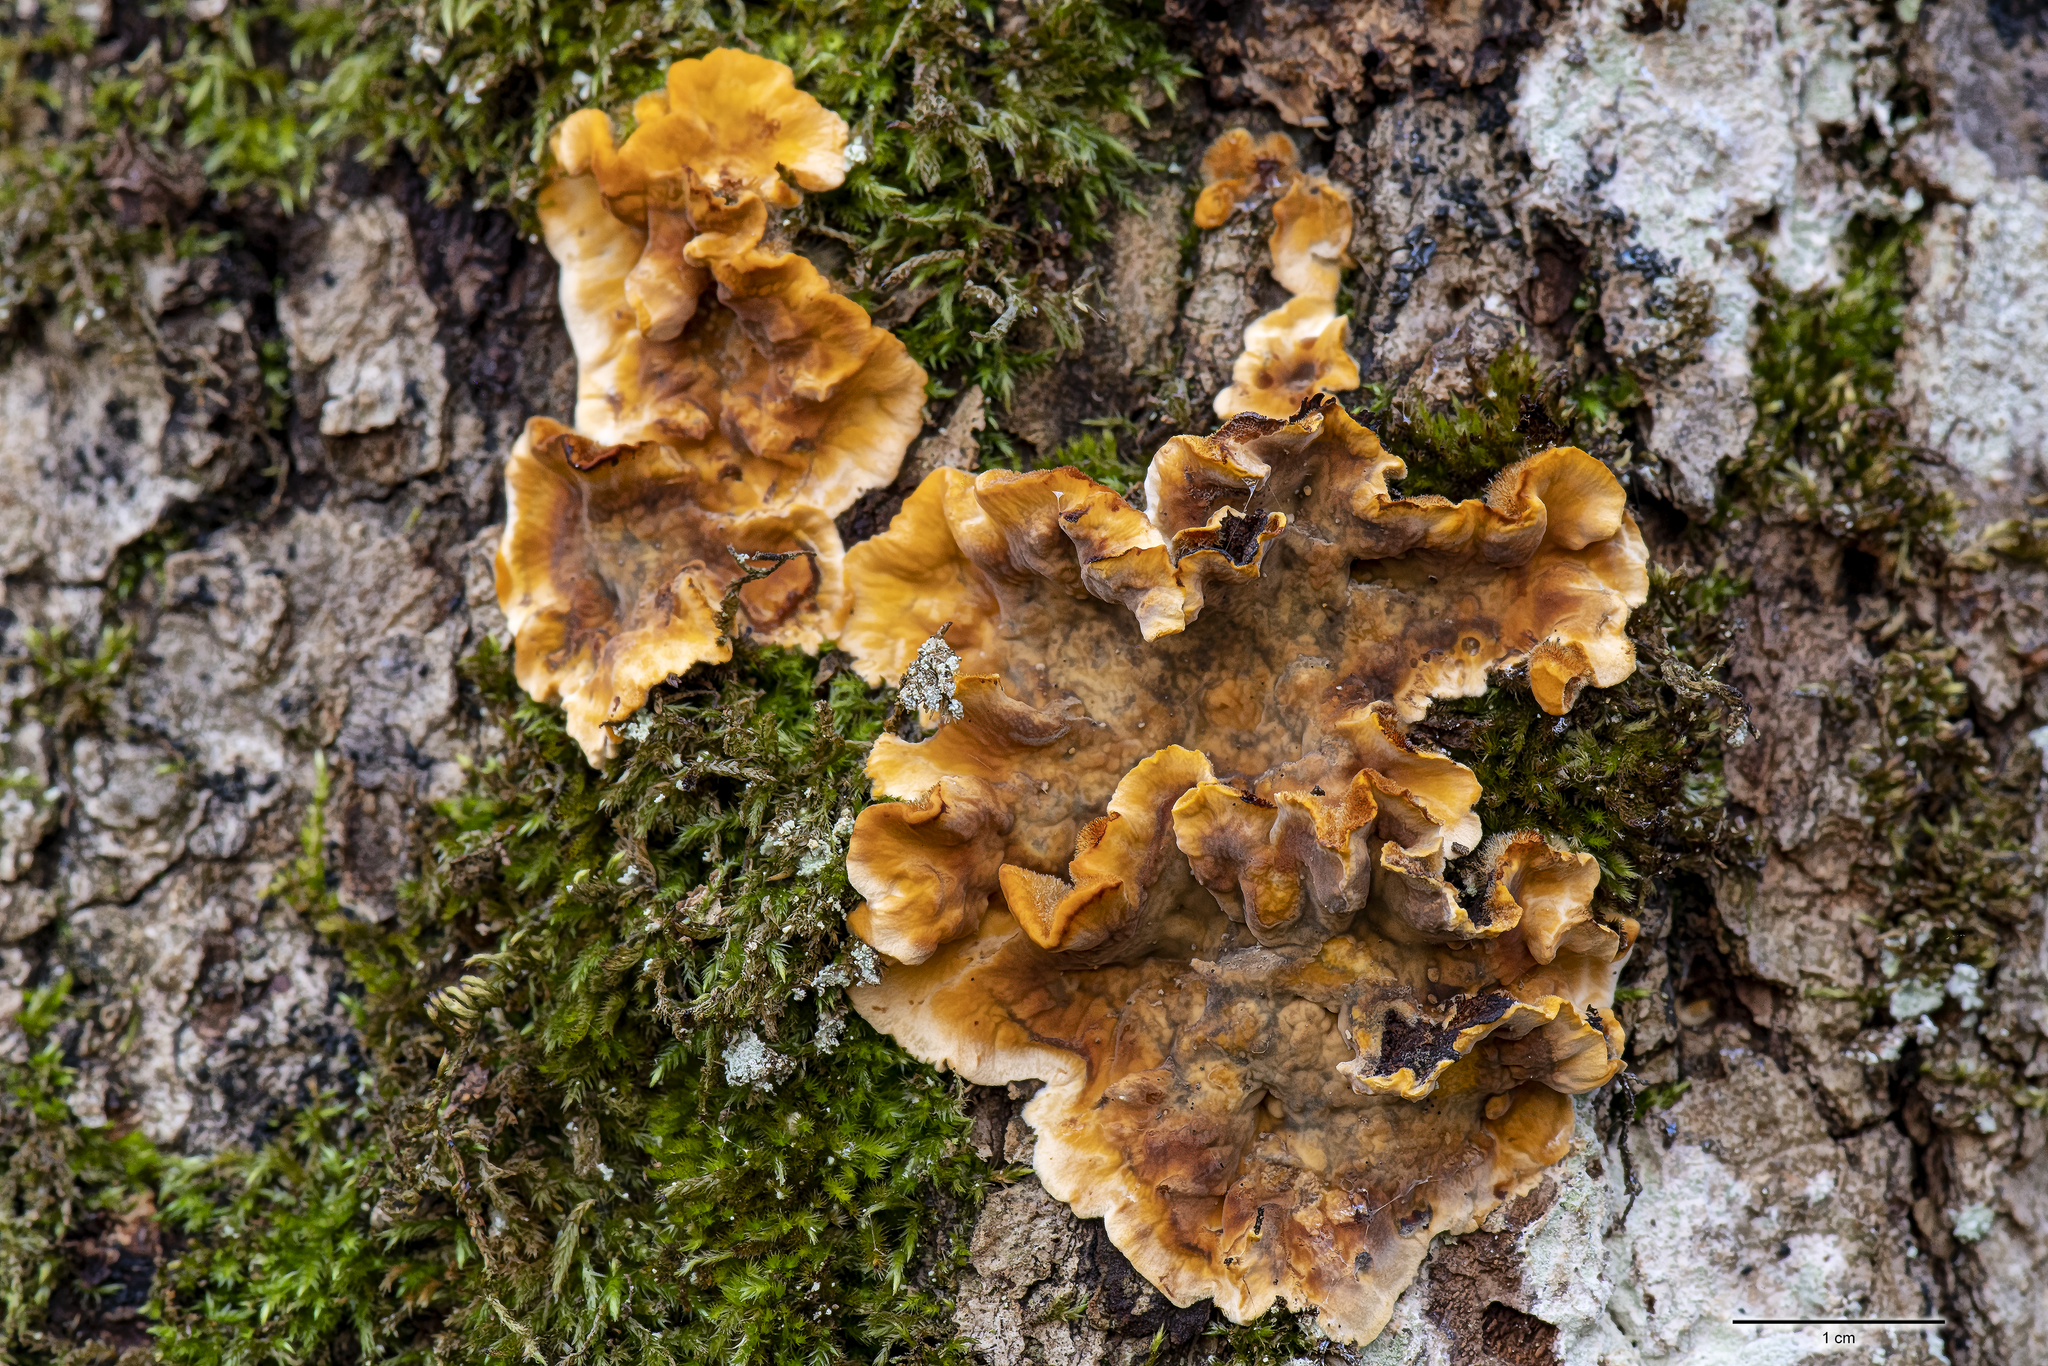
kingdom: Fungi
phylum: Basidiomycota
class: Agaricomycetes
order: Russulales
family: Stereaceae
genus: Stereum
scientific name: Stereum gausapatum
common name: Bleeding oak crust
